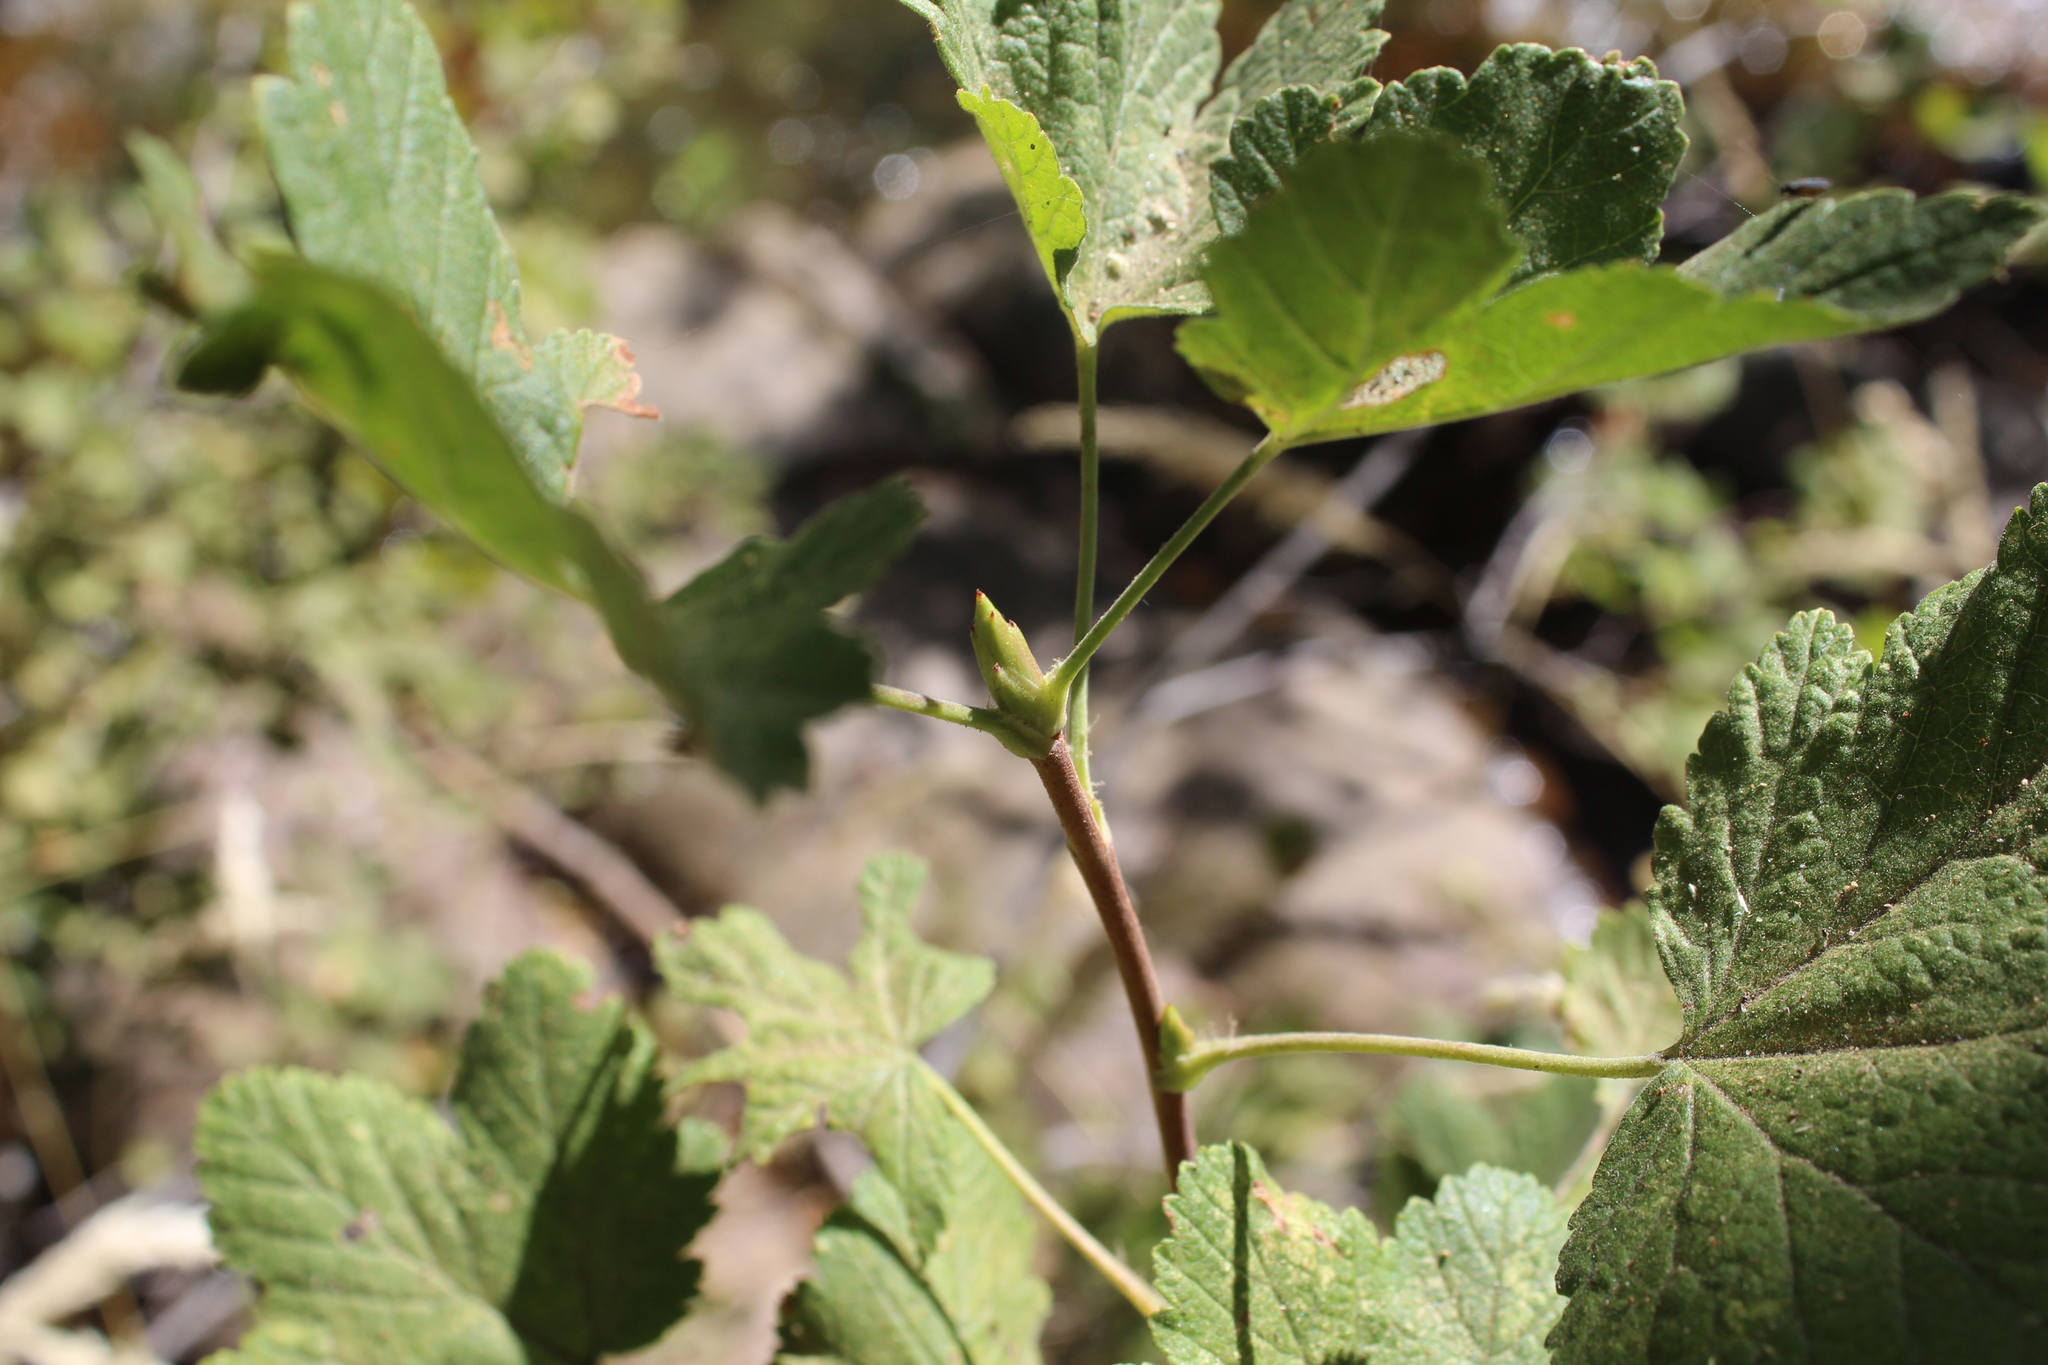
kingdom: Plantae
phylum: Tracheophyta
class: Magnoliopsida
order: Saxifragales
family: Grossulariaceae
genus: Ribes
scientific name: Ribes nevadense
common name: Mountain pink currant
